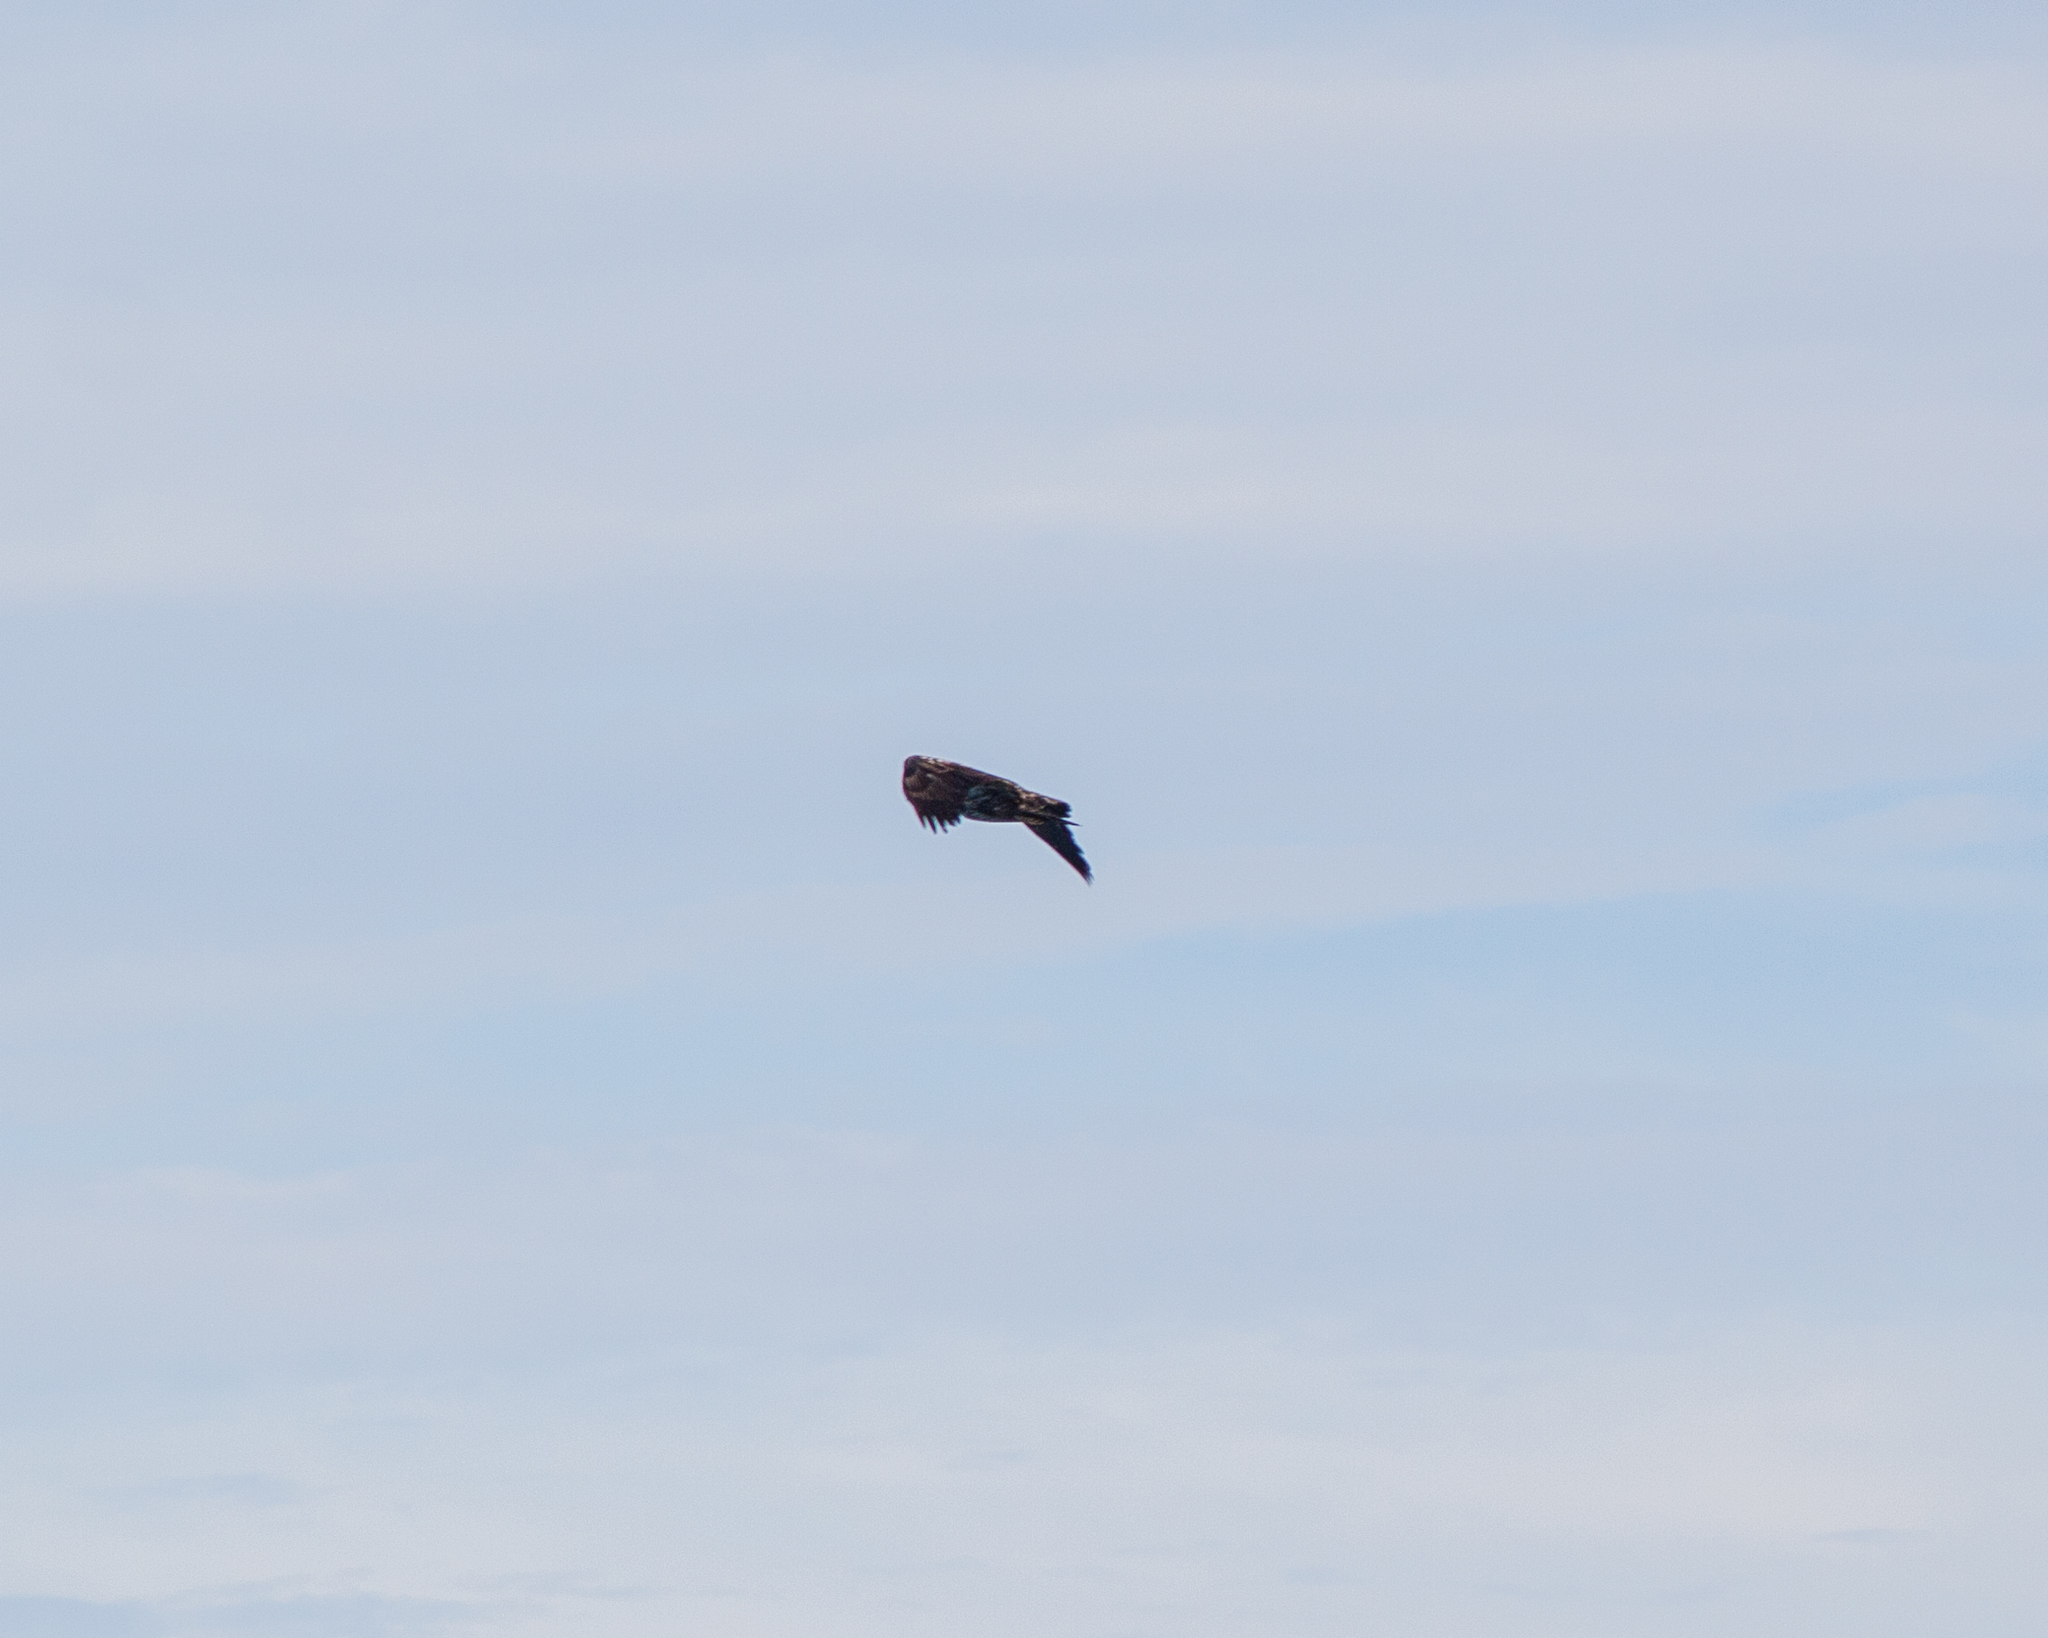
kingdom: Animalia
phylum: Chordata
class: Aves
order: Accipitriformes
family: Accipitridae
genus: Haliaeetus
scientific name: Haliaeetus leucocephalus
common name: Bald eagle
